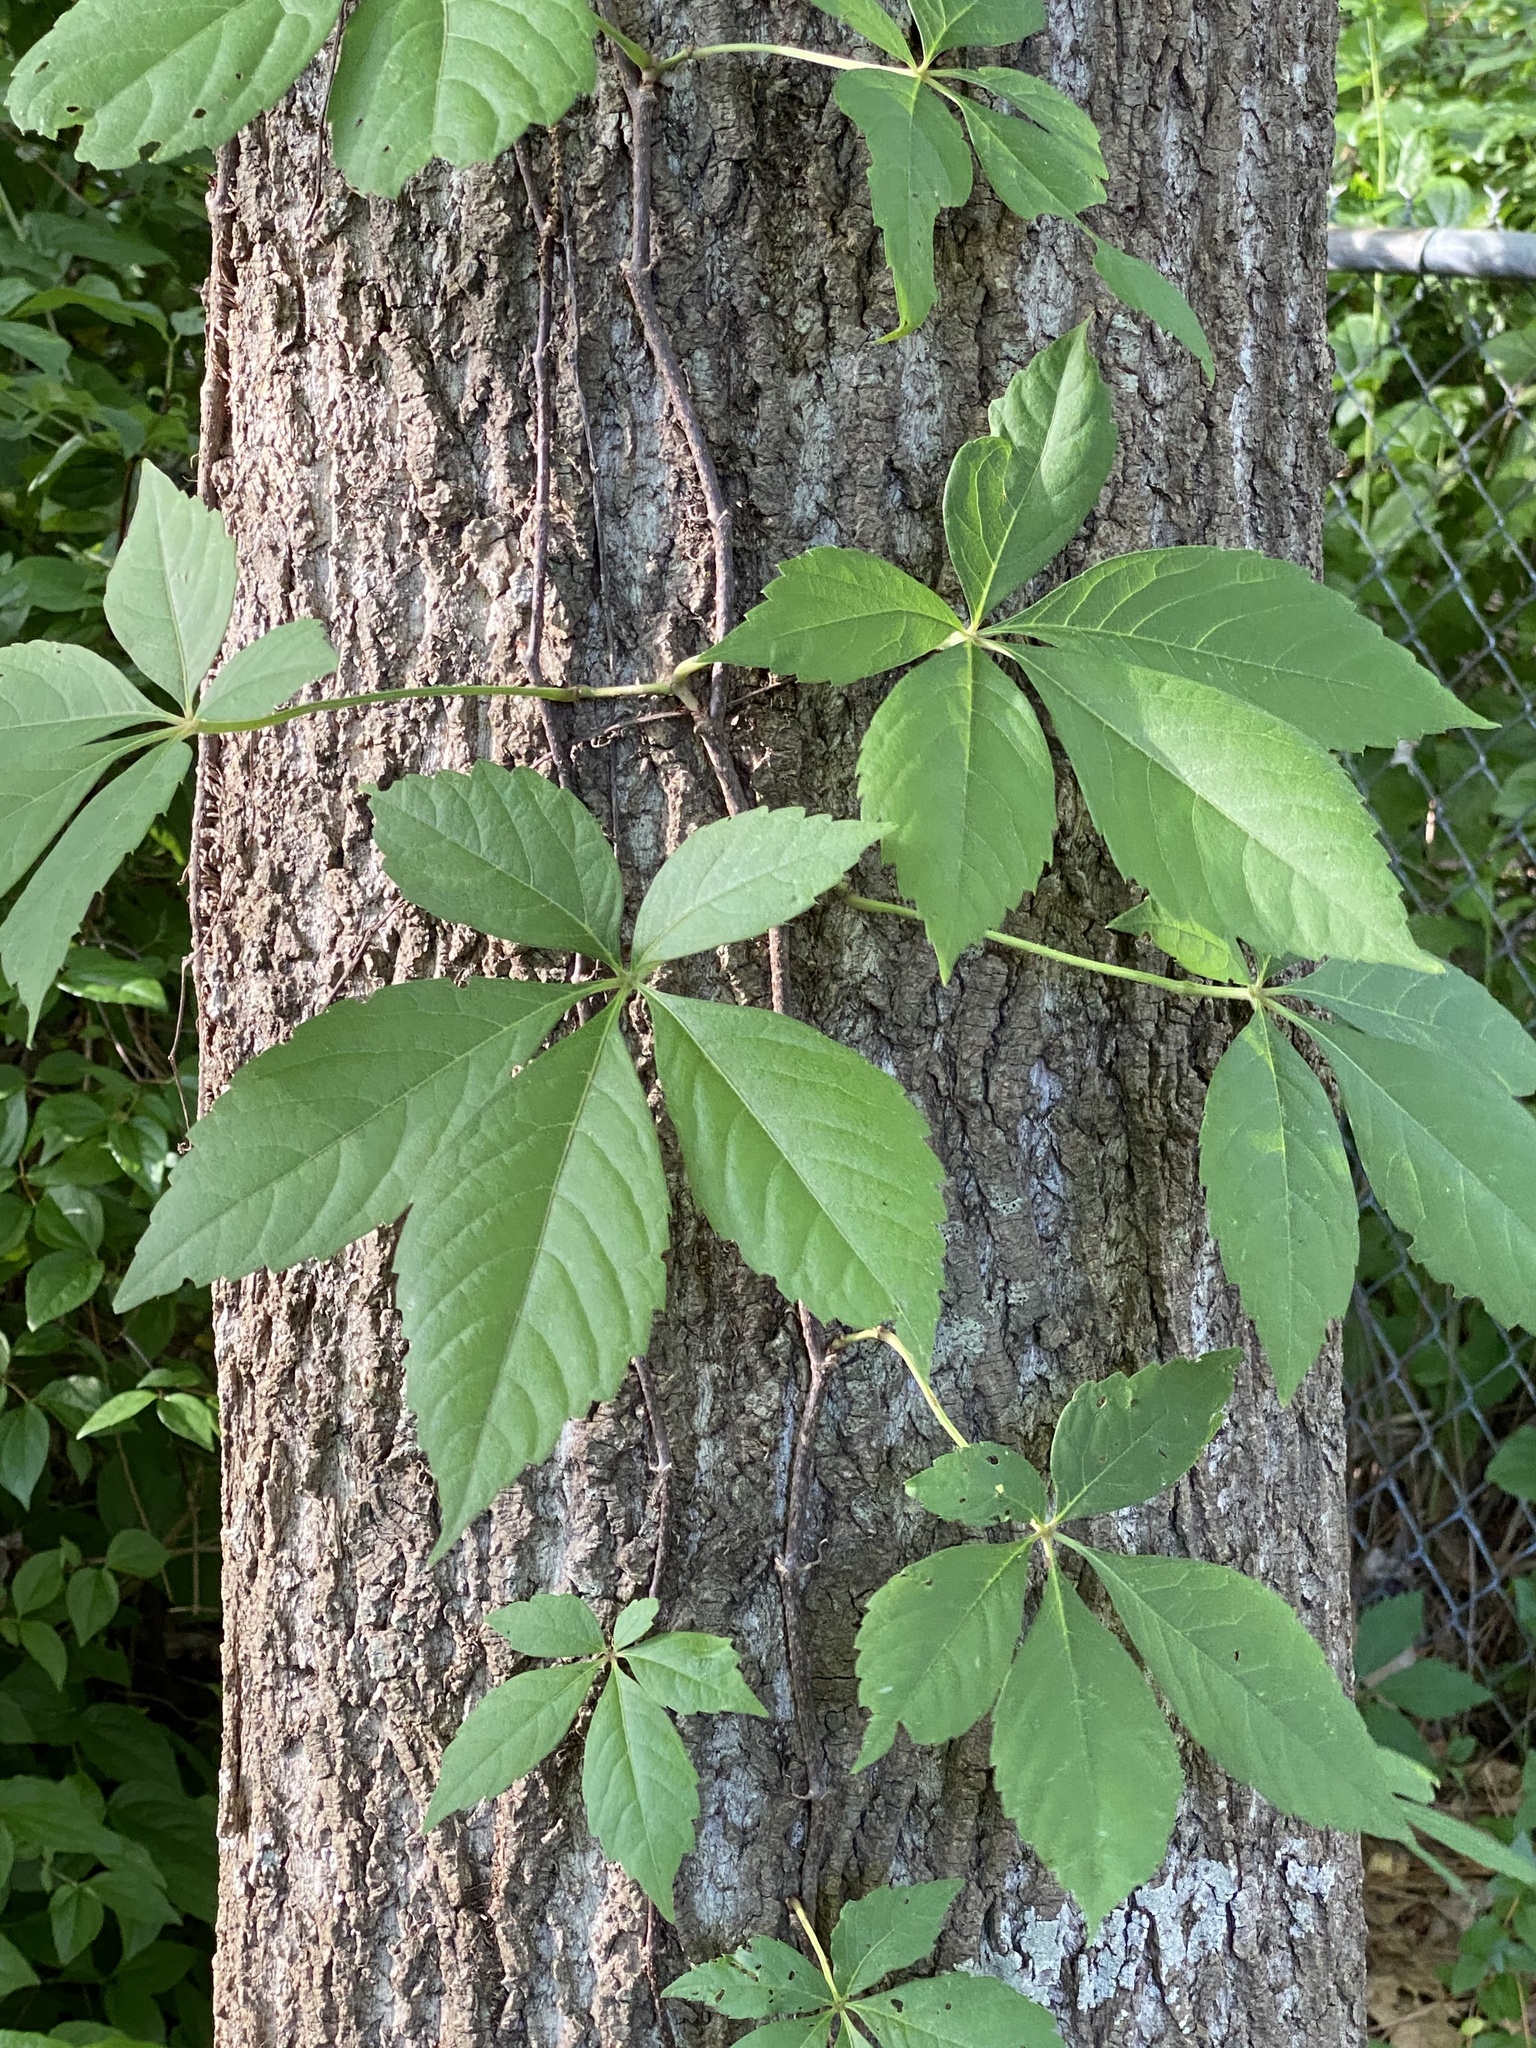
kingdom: Plantae
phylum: Tracheophyta
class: Magnoliopsida
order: Vitales
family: Vitaceae
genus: Parthenocissus
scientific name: Parthenocissus quinquefolia
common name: Virginia-creeper
